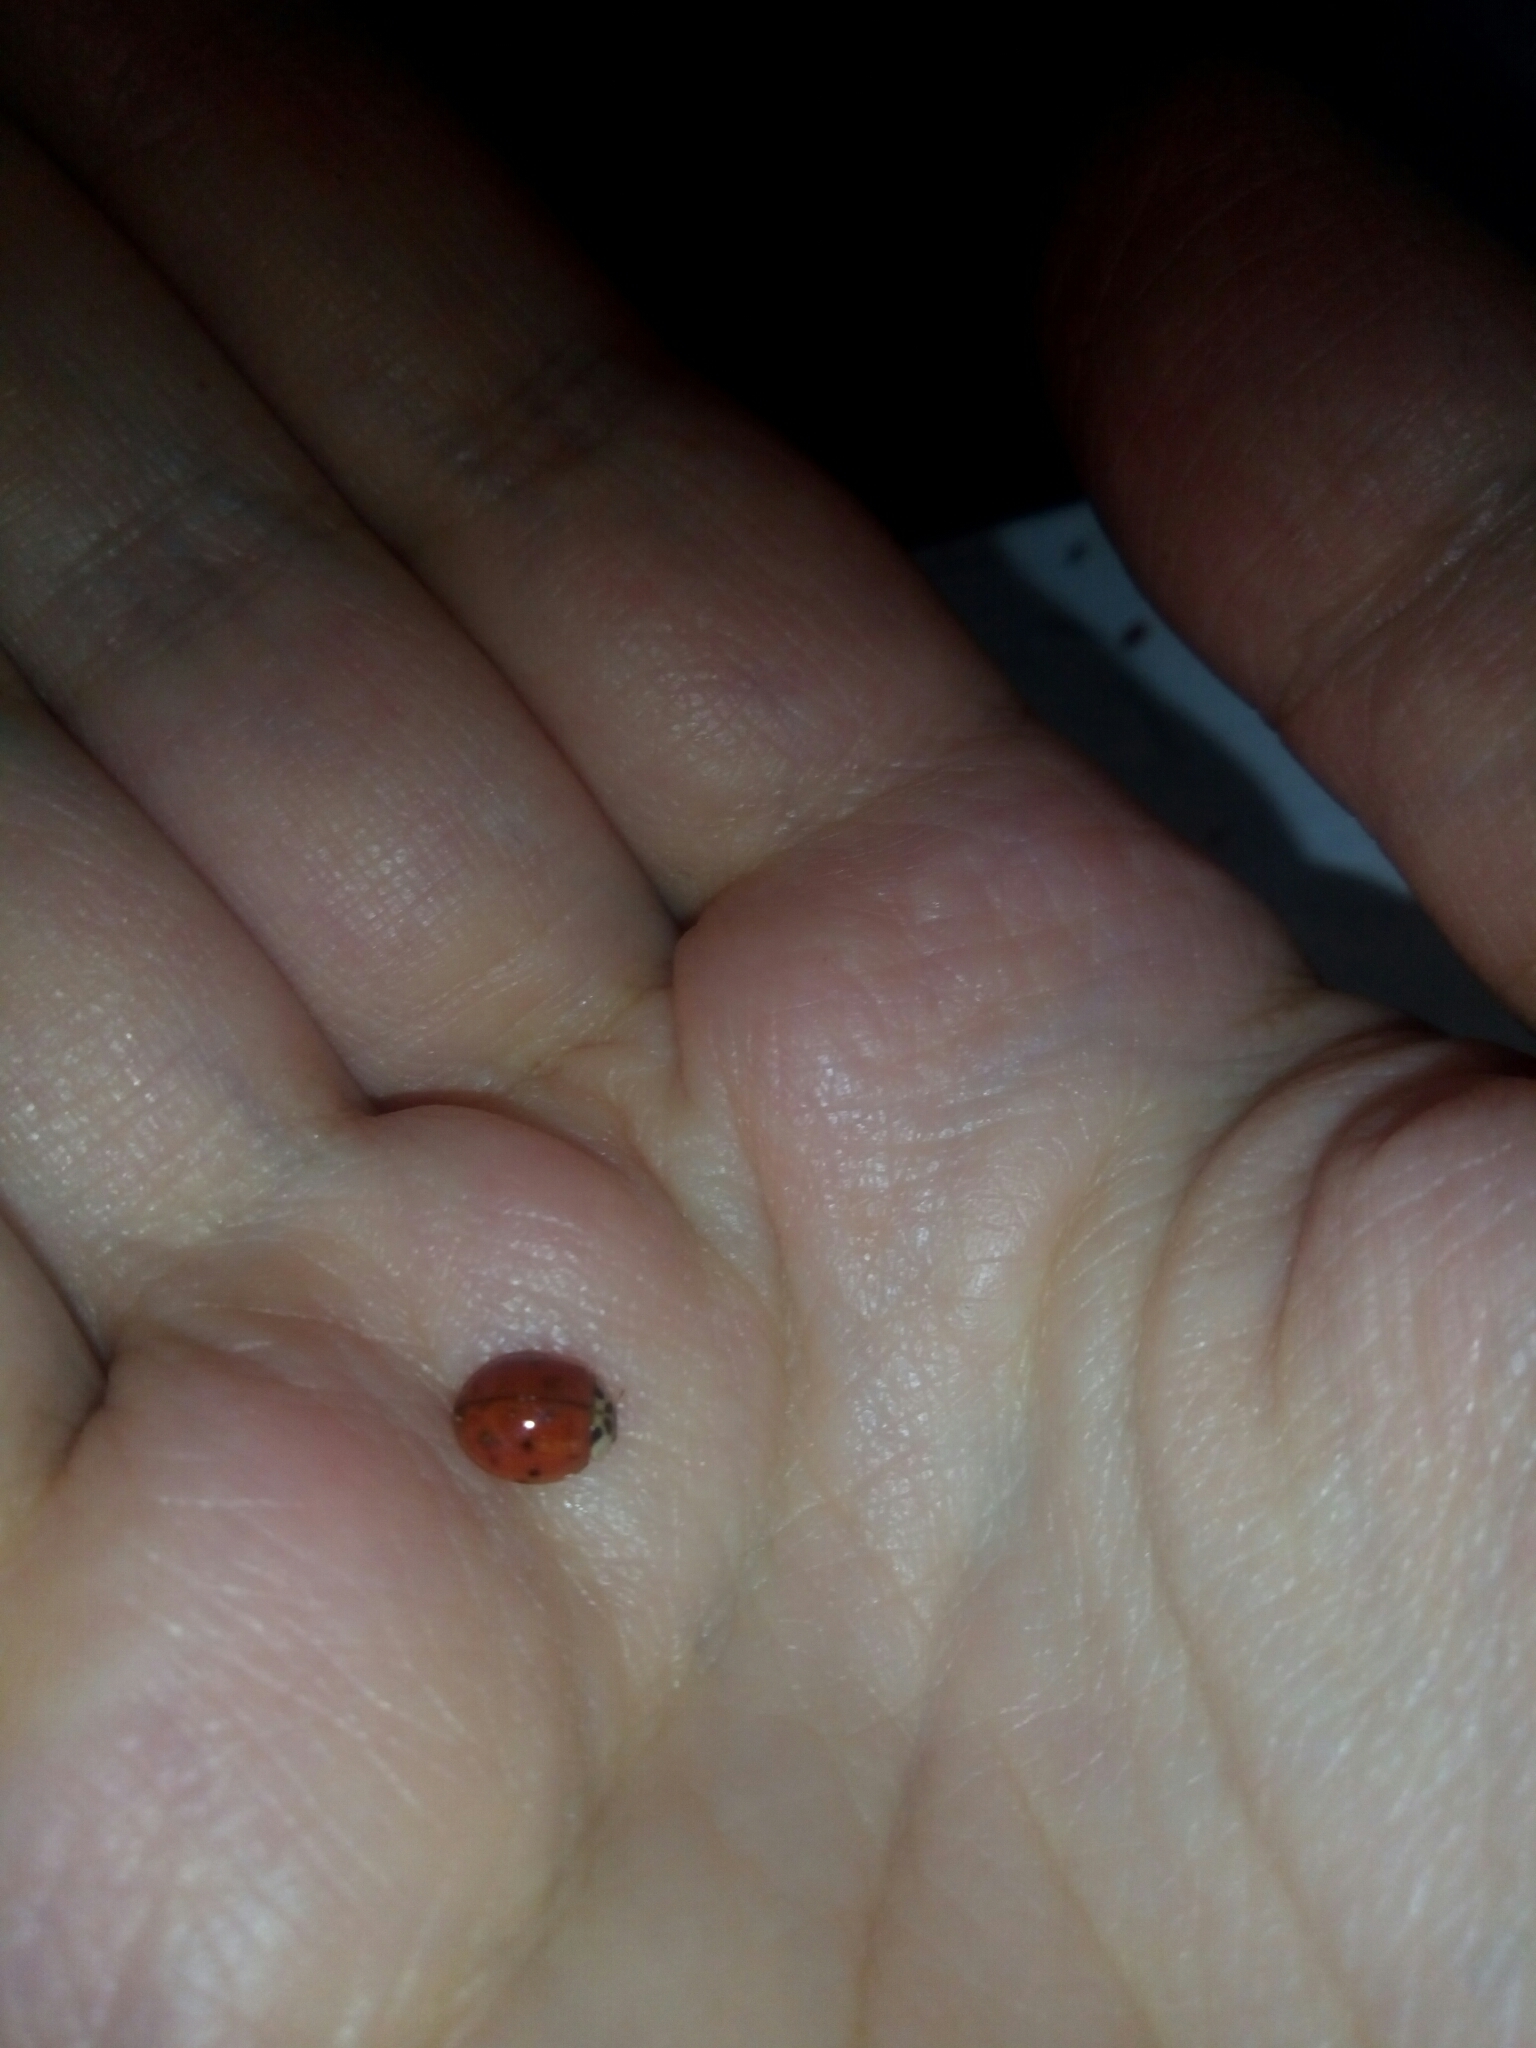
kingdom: Animalia
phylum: Arthropoda
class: Insecta
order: Coleoptera
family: Coccinellidae
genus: Harmonia
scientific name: Harmonia axyridis
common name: Harlequin ladybird
